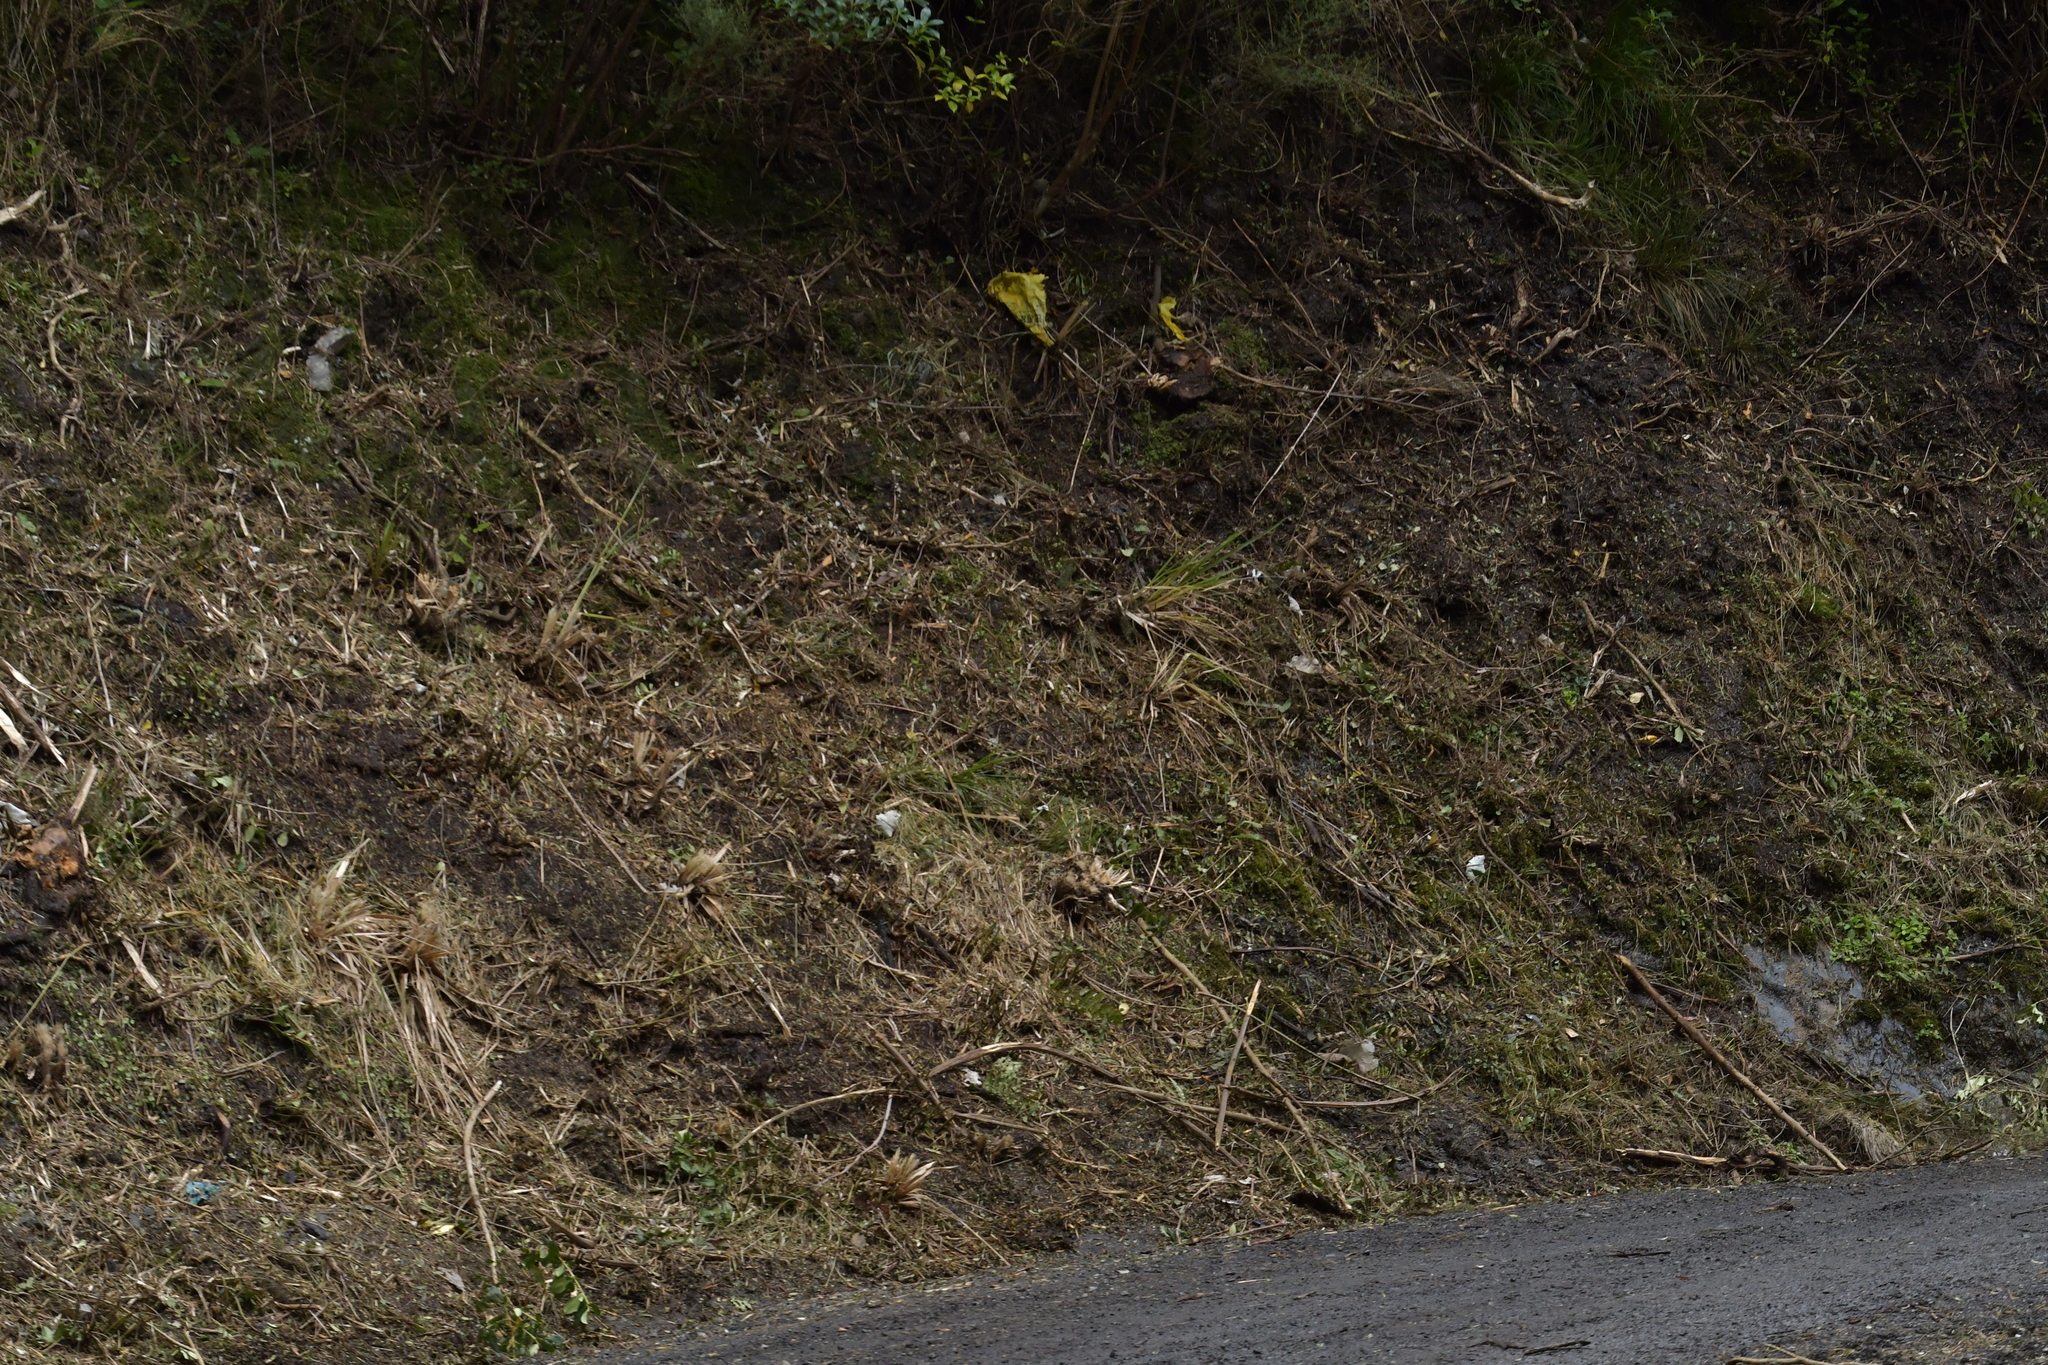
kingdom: Plantae
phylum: Tracheophyta
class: Liliopsida
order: Asparagales
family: Orchidaceae
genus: Corybas
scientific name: Corybas hatchii
